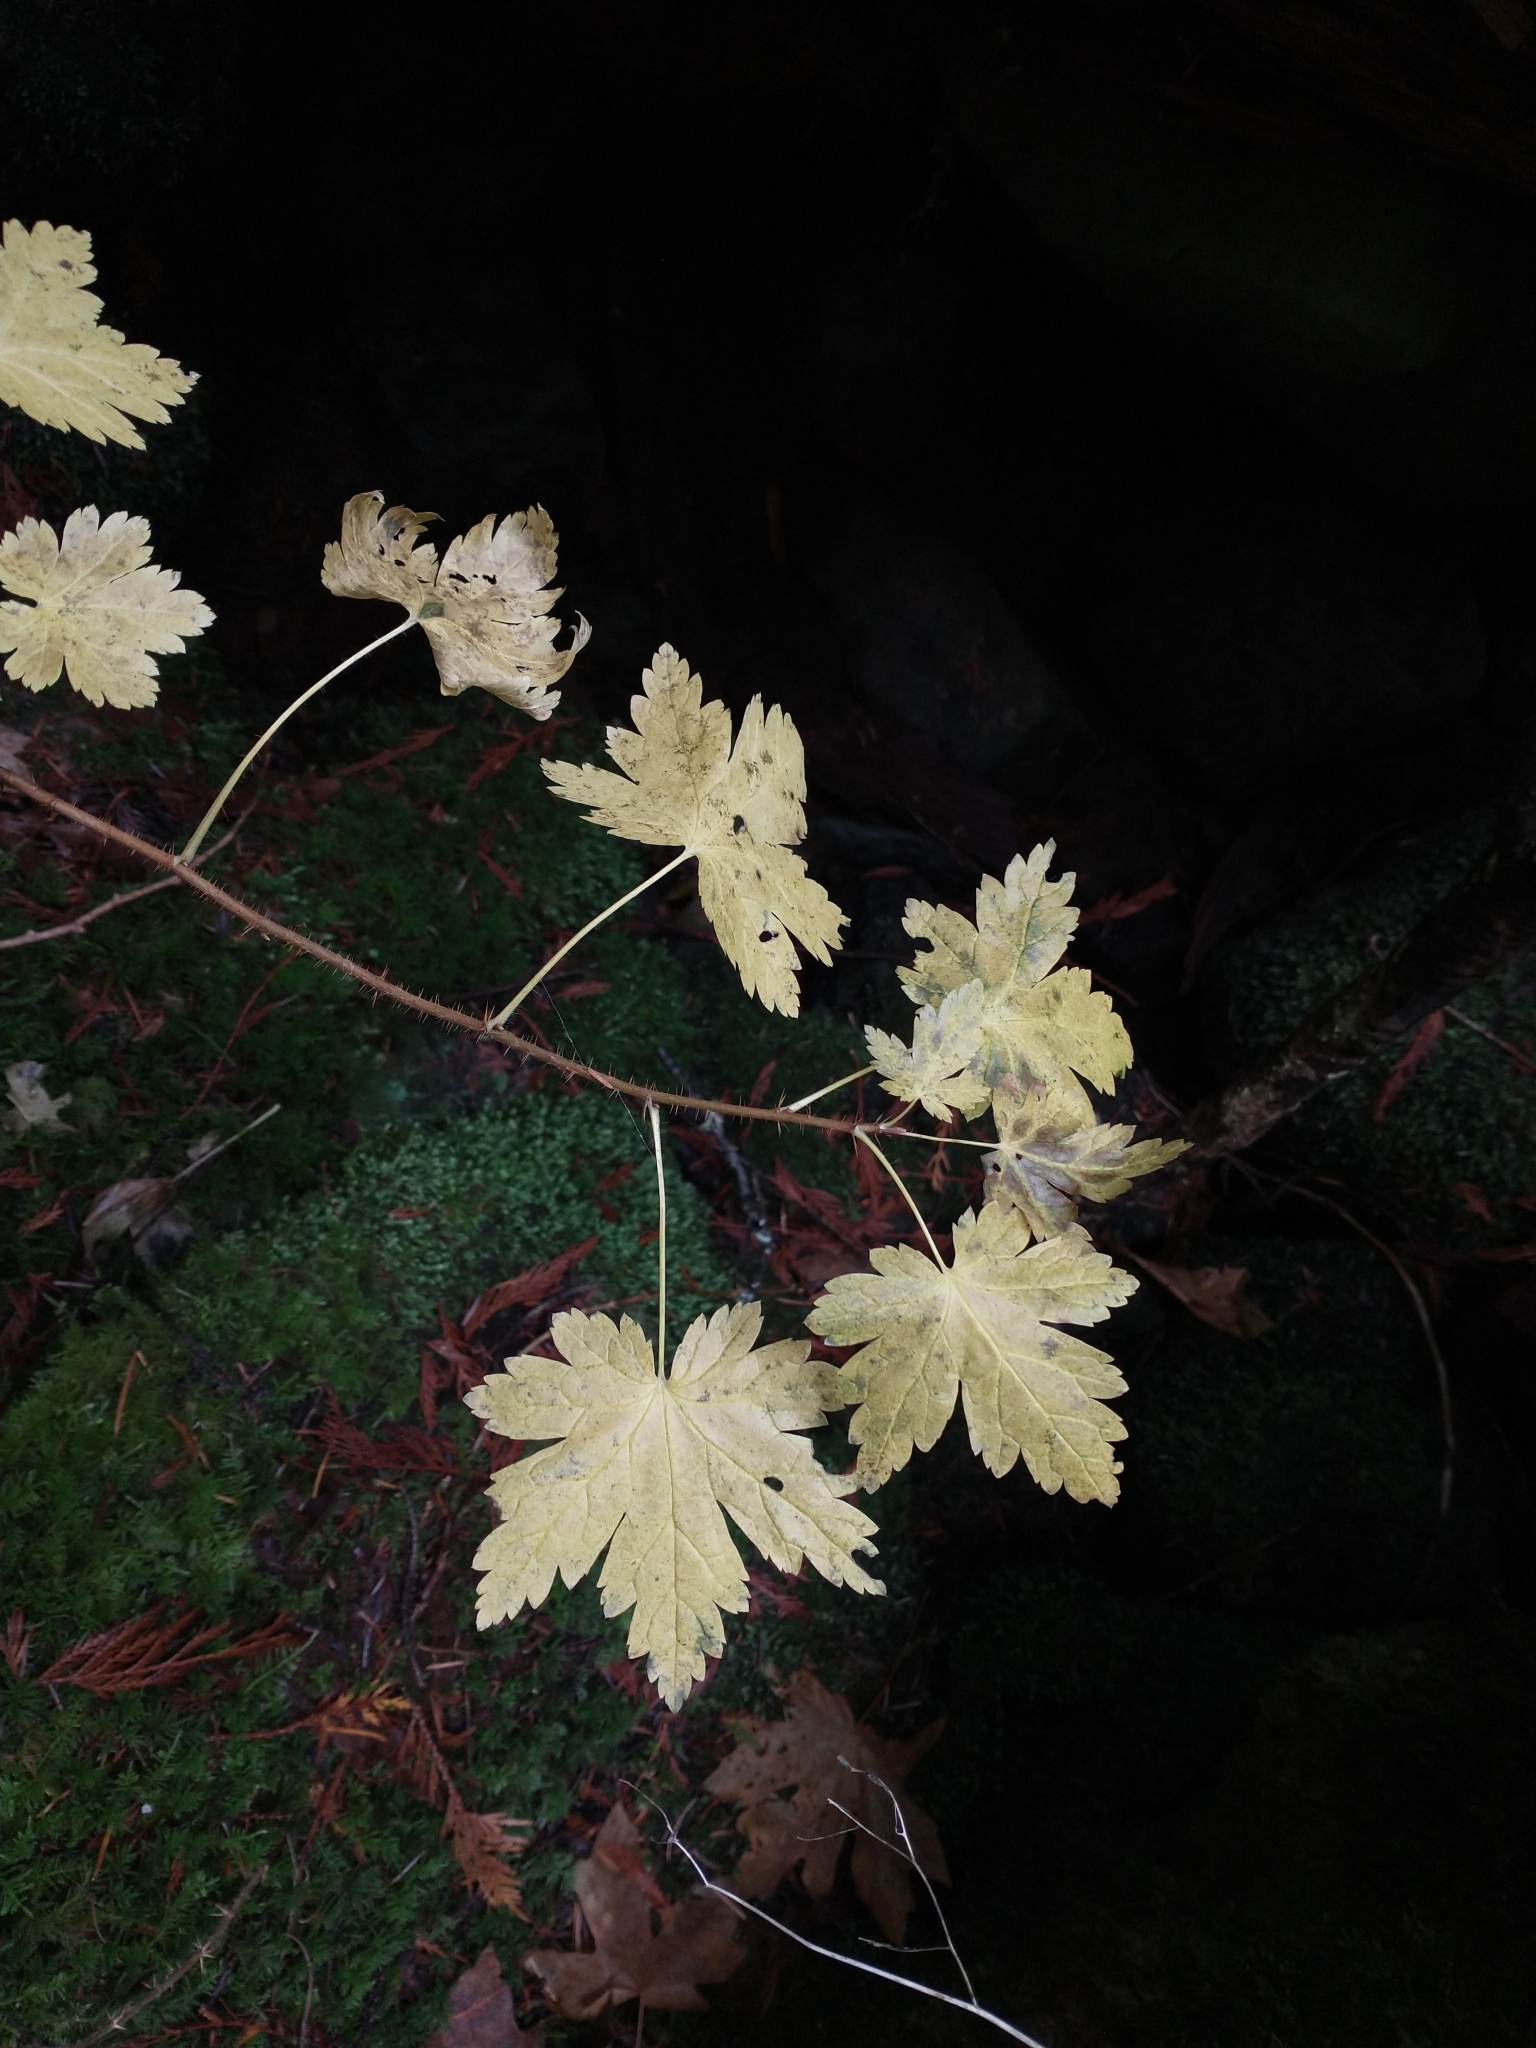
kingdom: Plantae
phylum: Tracheophyta
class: Magnoliopsida
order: Saxifragales
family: Grossulariaceae
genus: Ribes
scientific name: Ribes lacustre
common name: Black gooseberry
